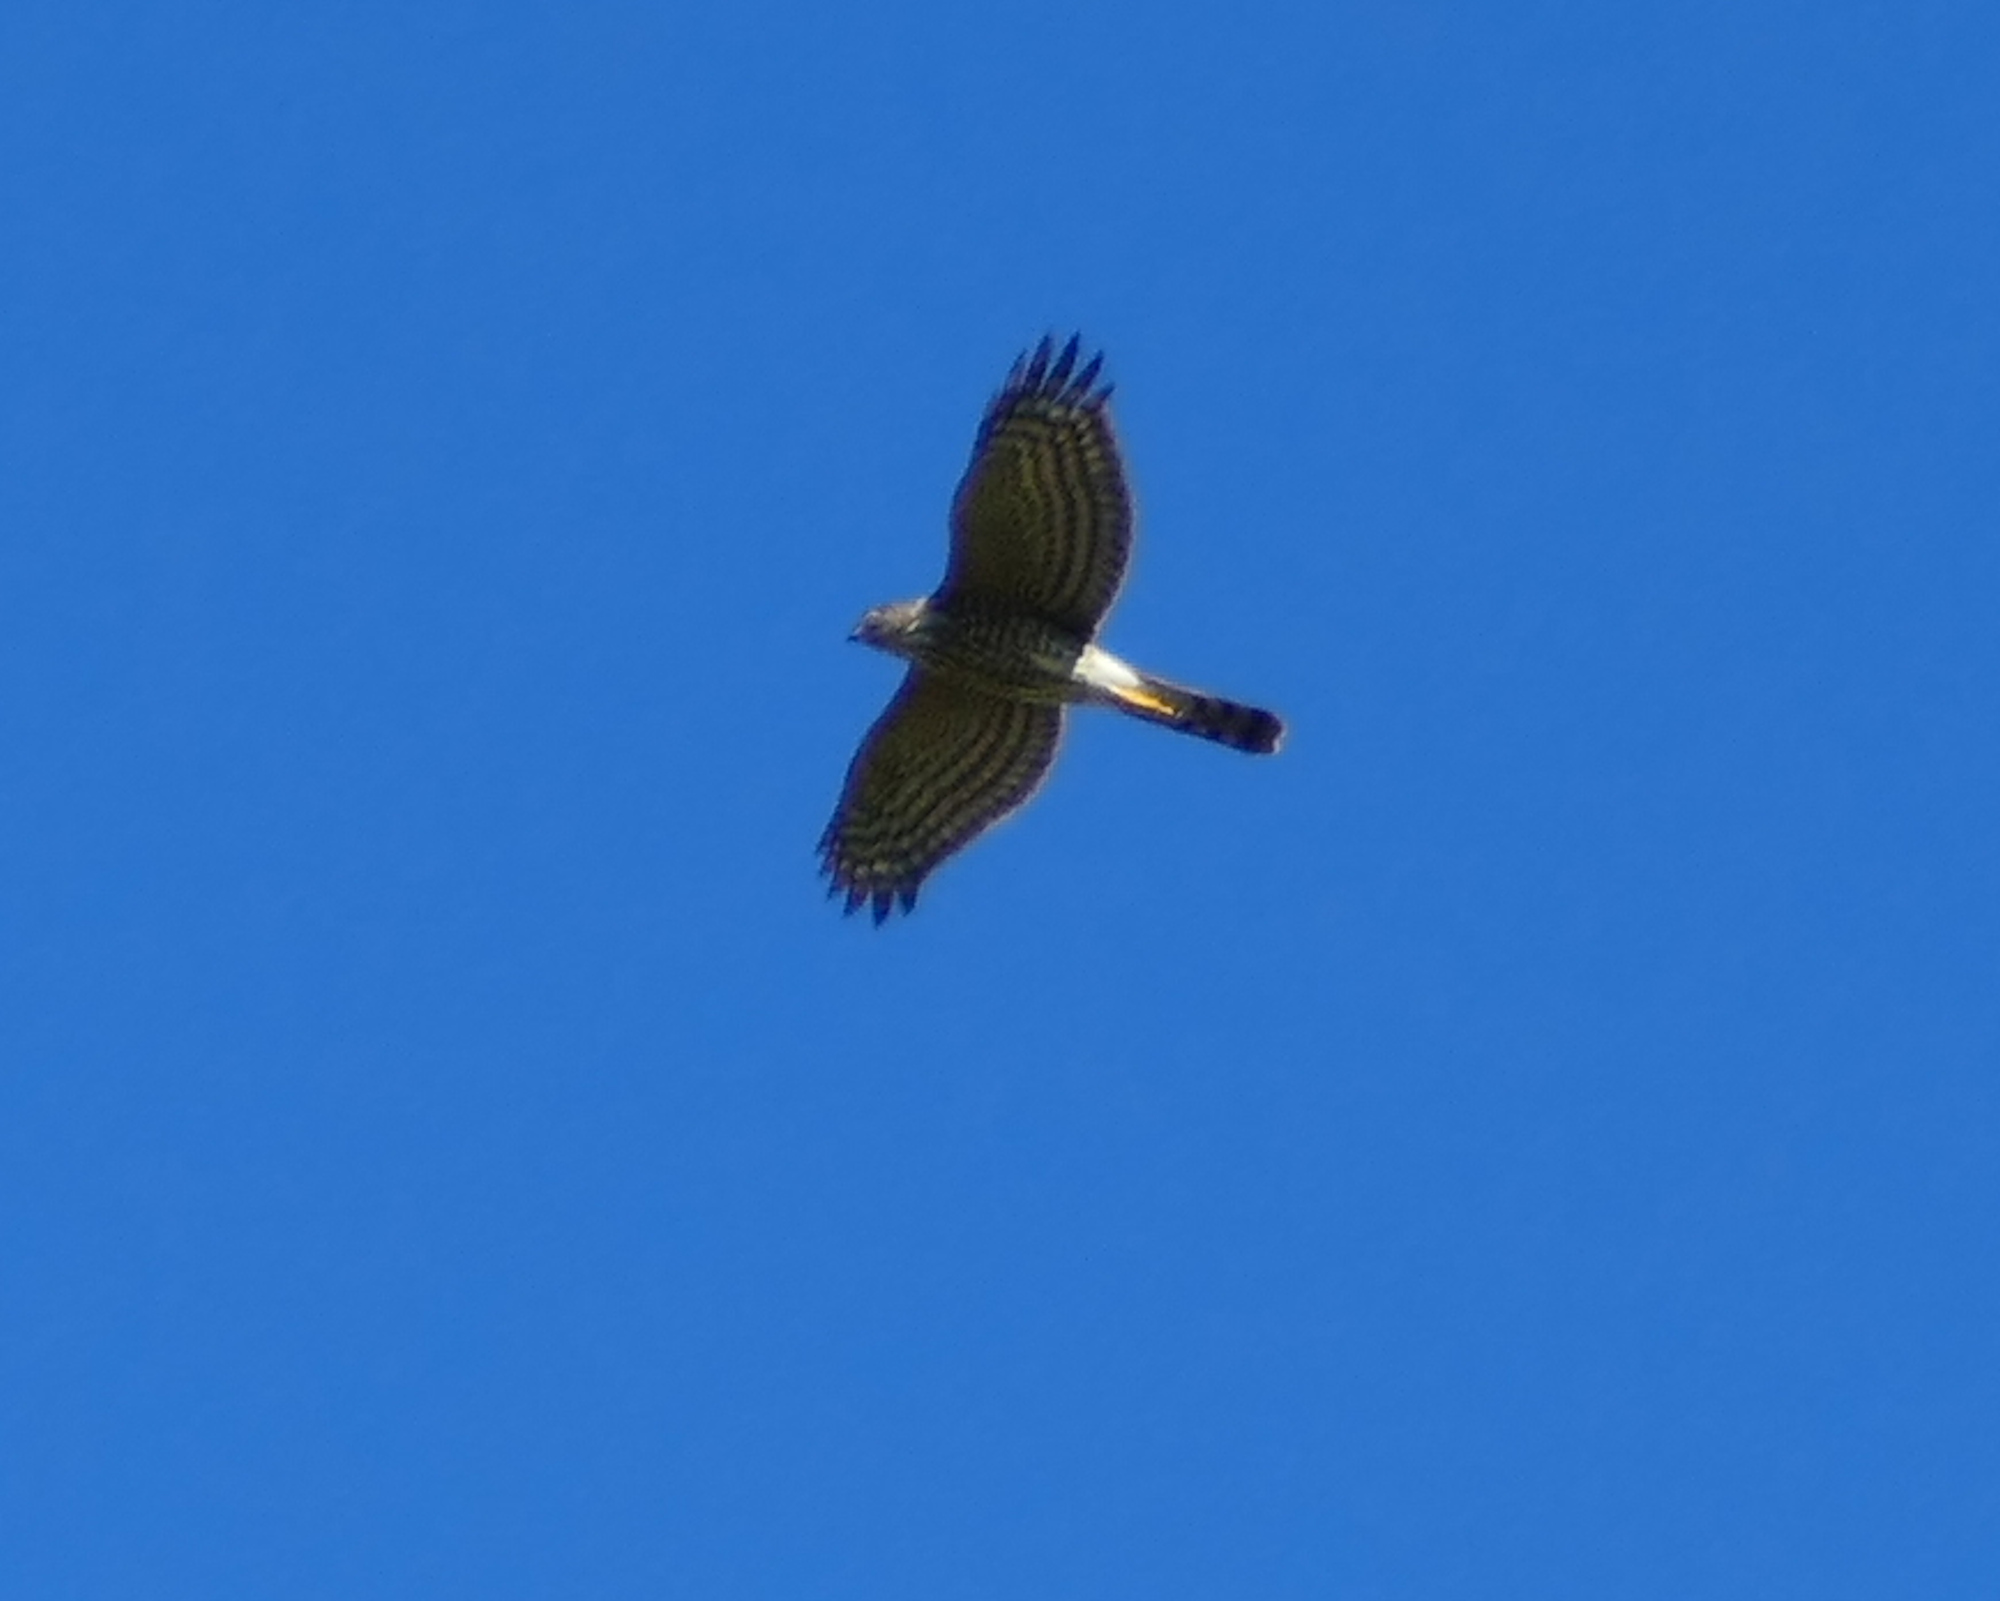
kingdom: Animalia
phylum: Chordata
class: Aves
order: Accipitriformes
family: Accipitridae
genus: Accipiter
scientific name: Accipiter striatus
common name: Sharp-shinned hawk
